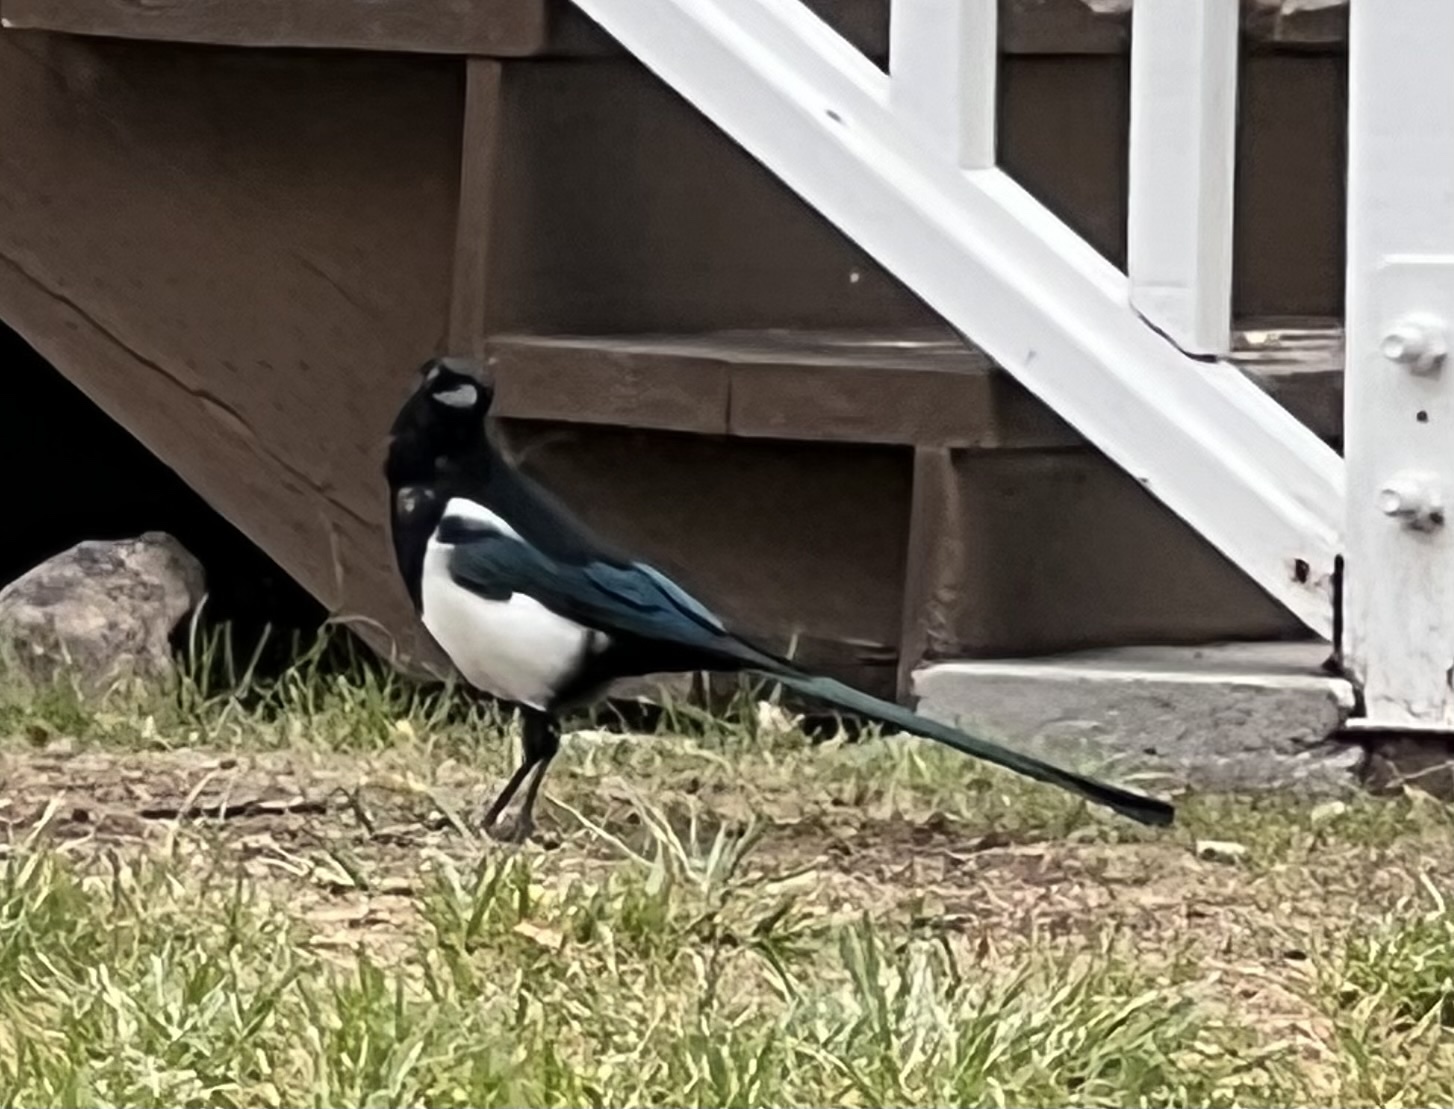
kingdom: Animalia
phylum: Chordata
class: Aves
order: Passeriformes
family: Corvidae
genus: Pica
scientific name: Pica hudsonia
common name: Black-billed magpie
